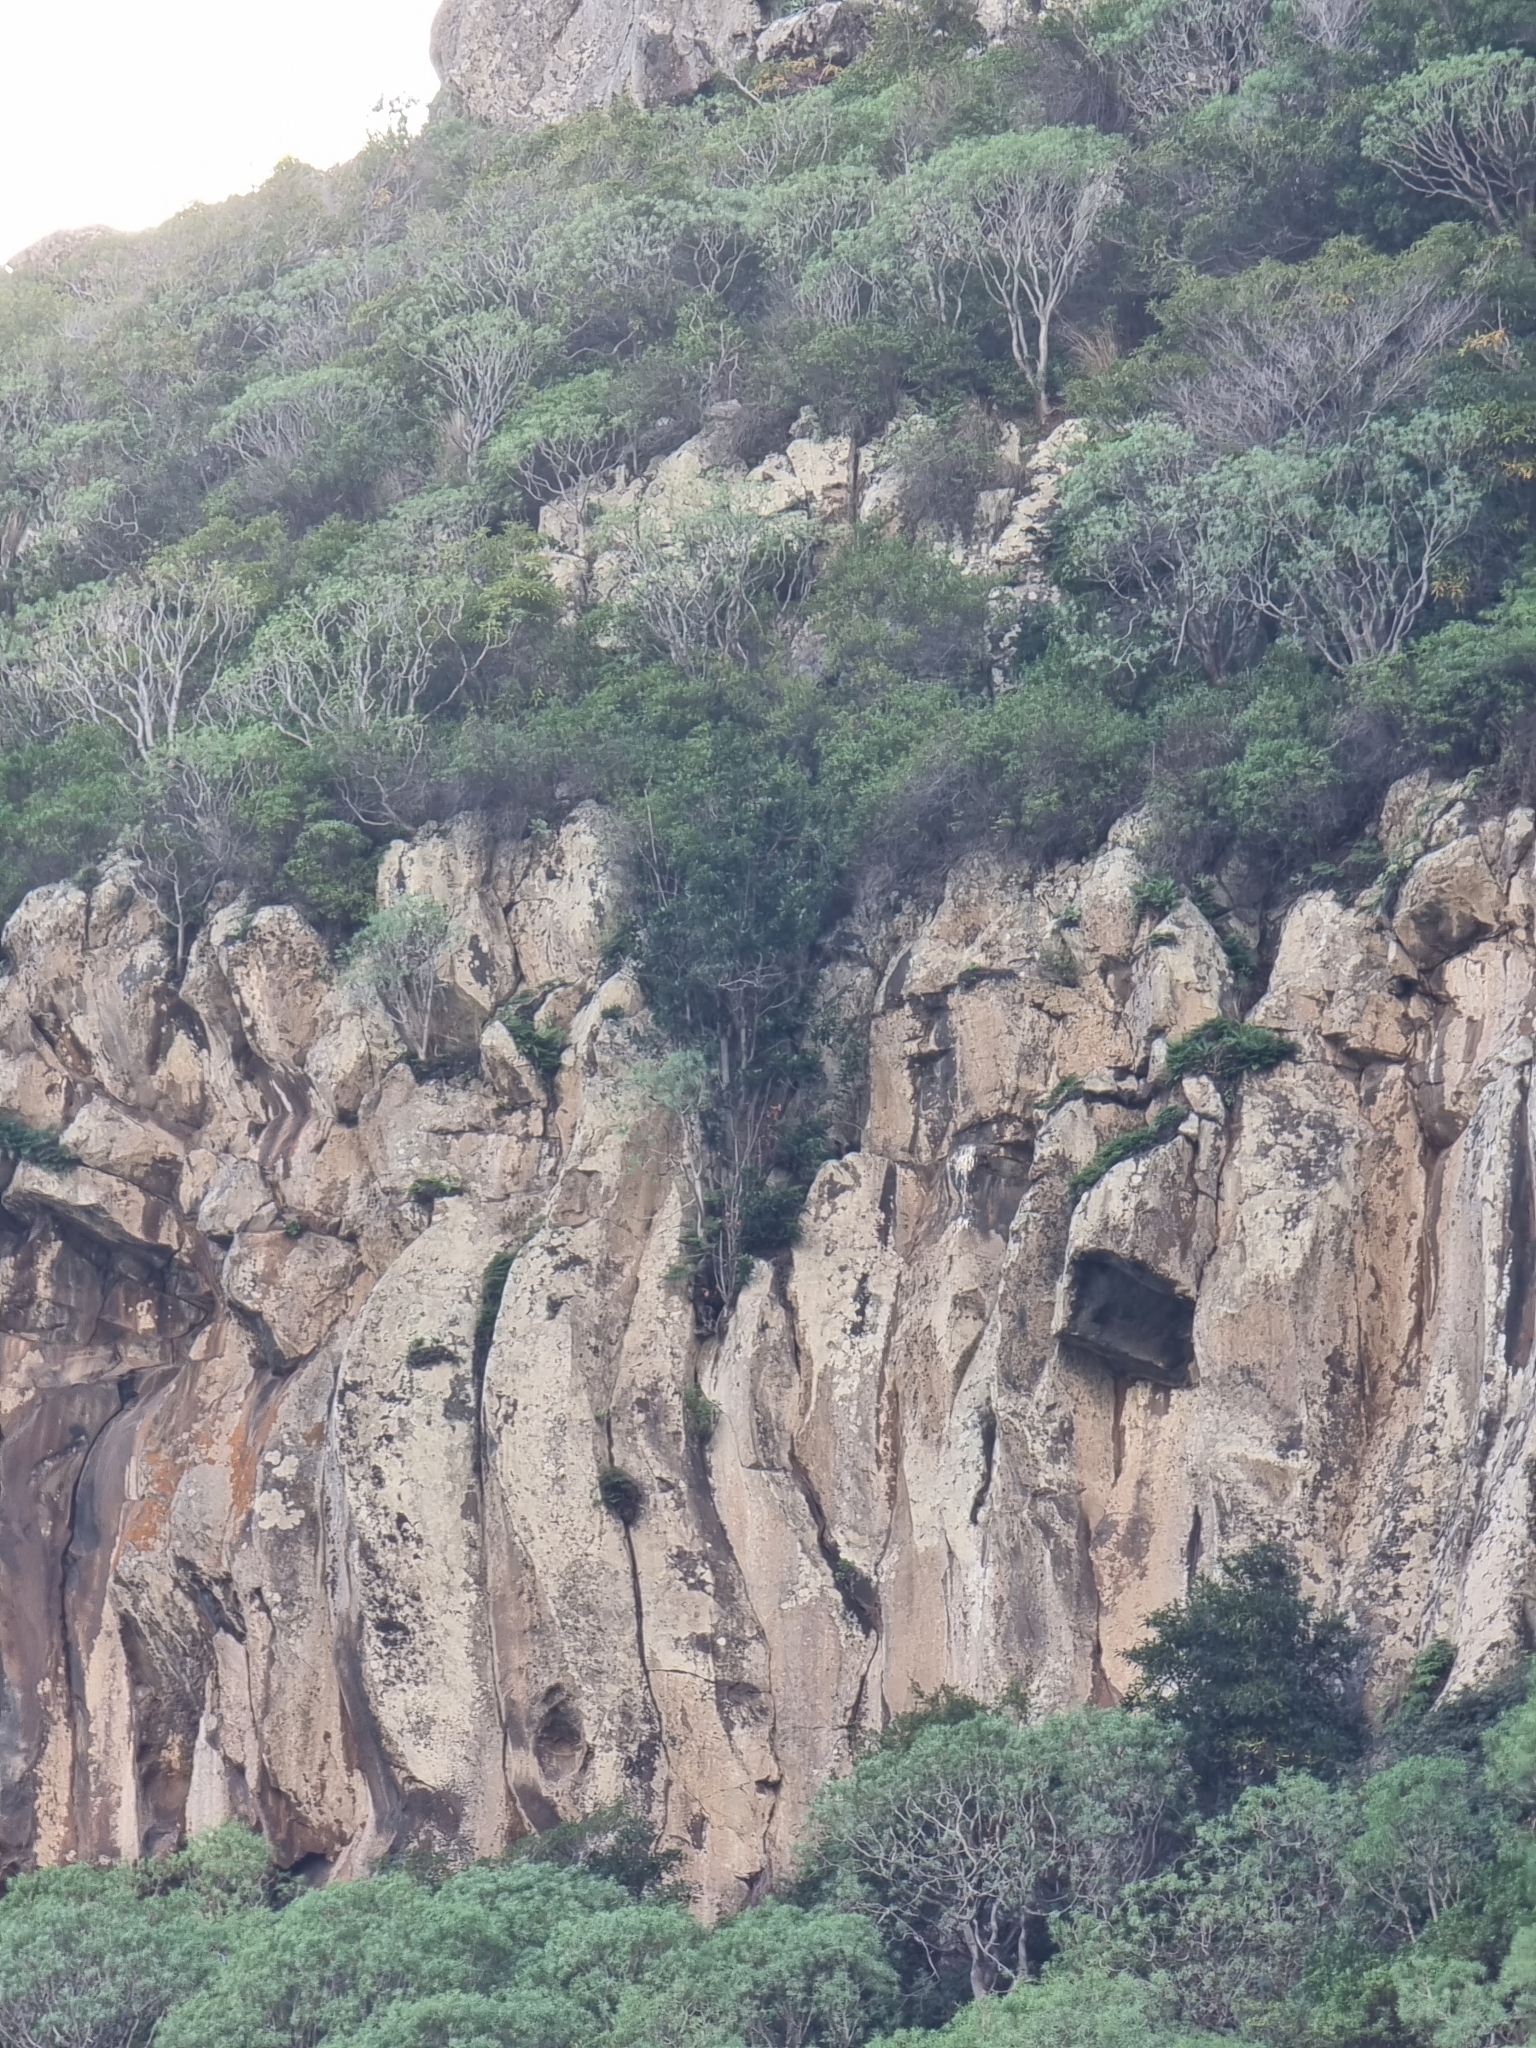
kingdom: Plantae
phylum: Tracheophyta
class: Magnoliopsida
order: Malpighiales
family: Euphorbiaceae
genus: Euphorbia
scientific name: Euphorbia piscatoria
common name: Fish-stunning spurge
